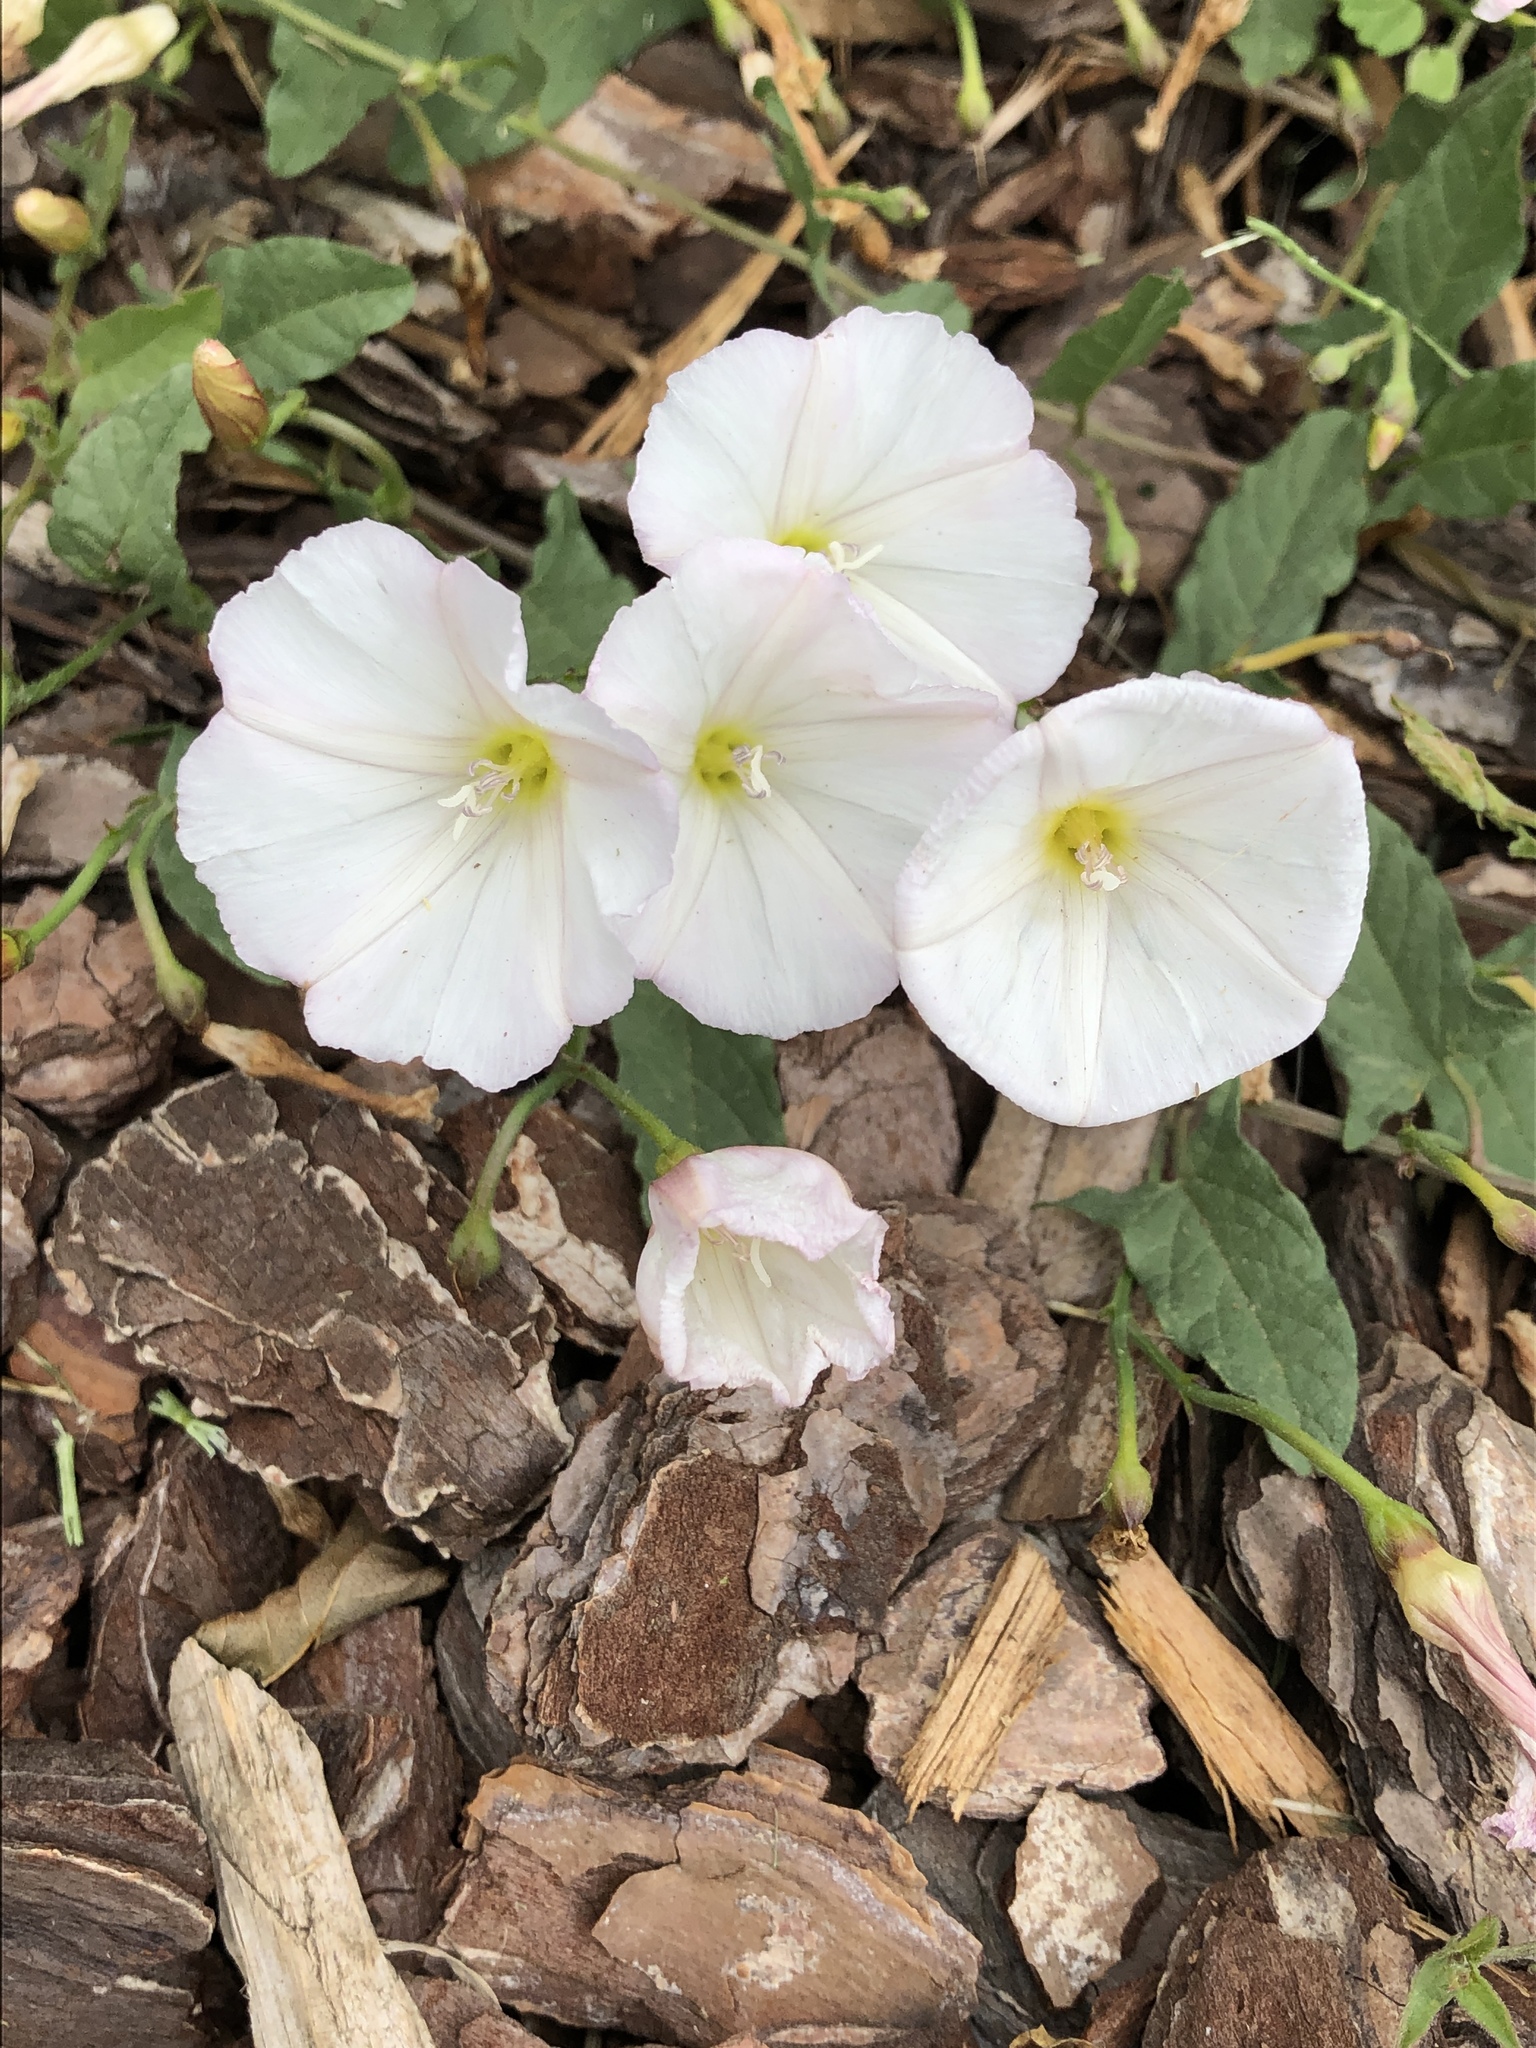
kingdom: Plantae
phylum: Tracheophyta
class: Magnoliopsida
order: Solanales
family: Convolvulaceae
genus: Convolvulus
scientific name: Convolvulus arvensis
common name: Field bindweed
